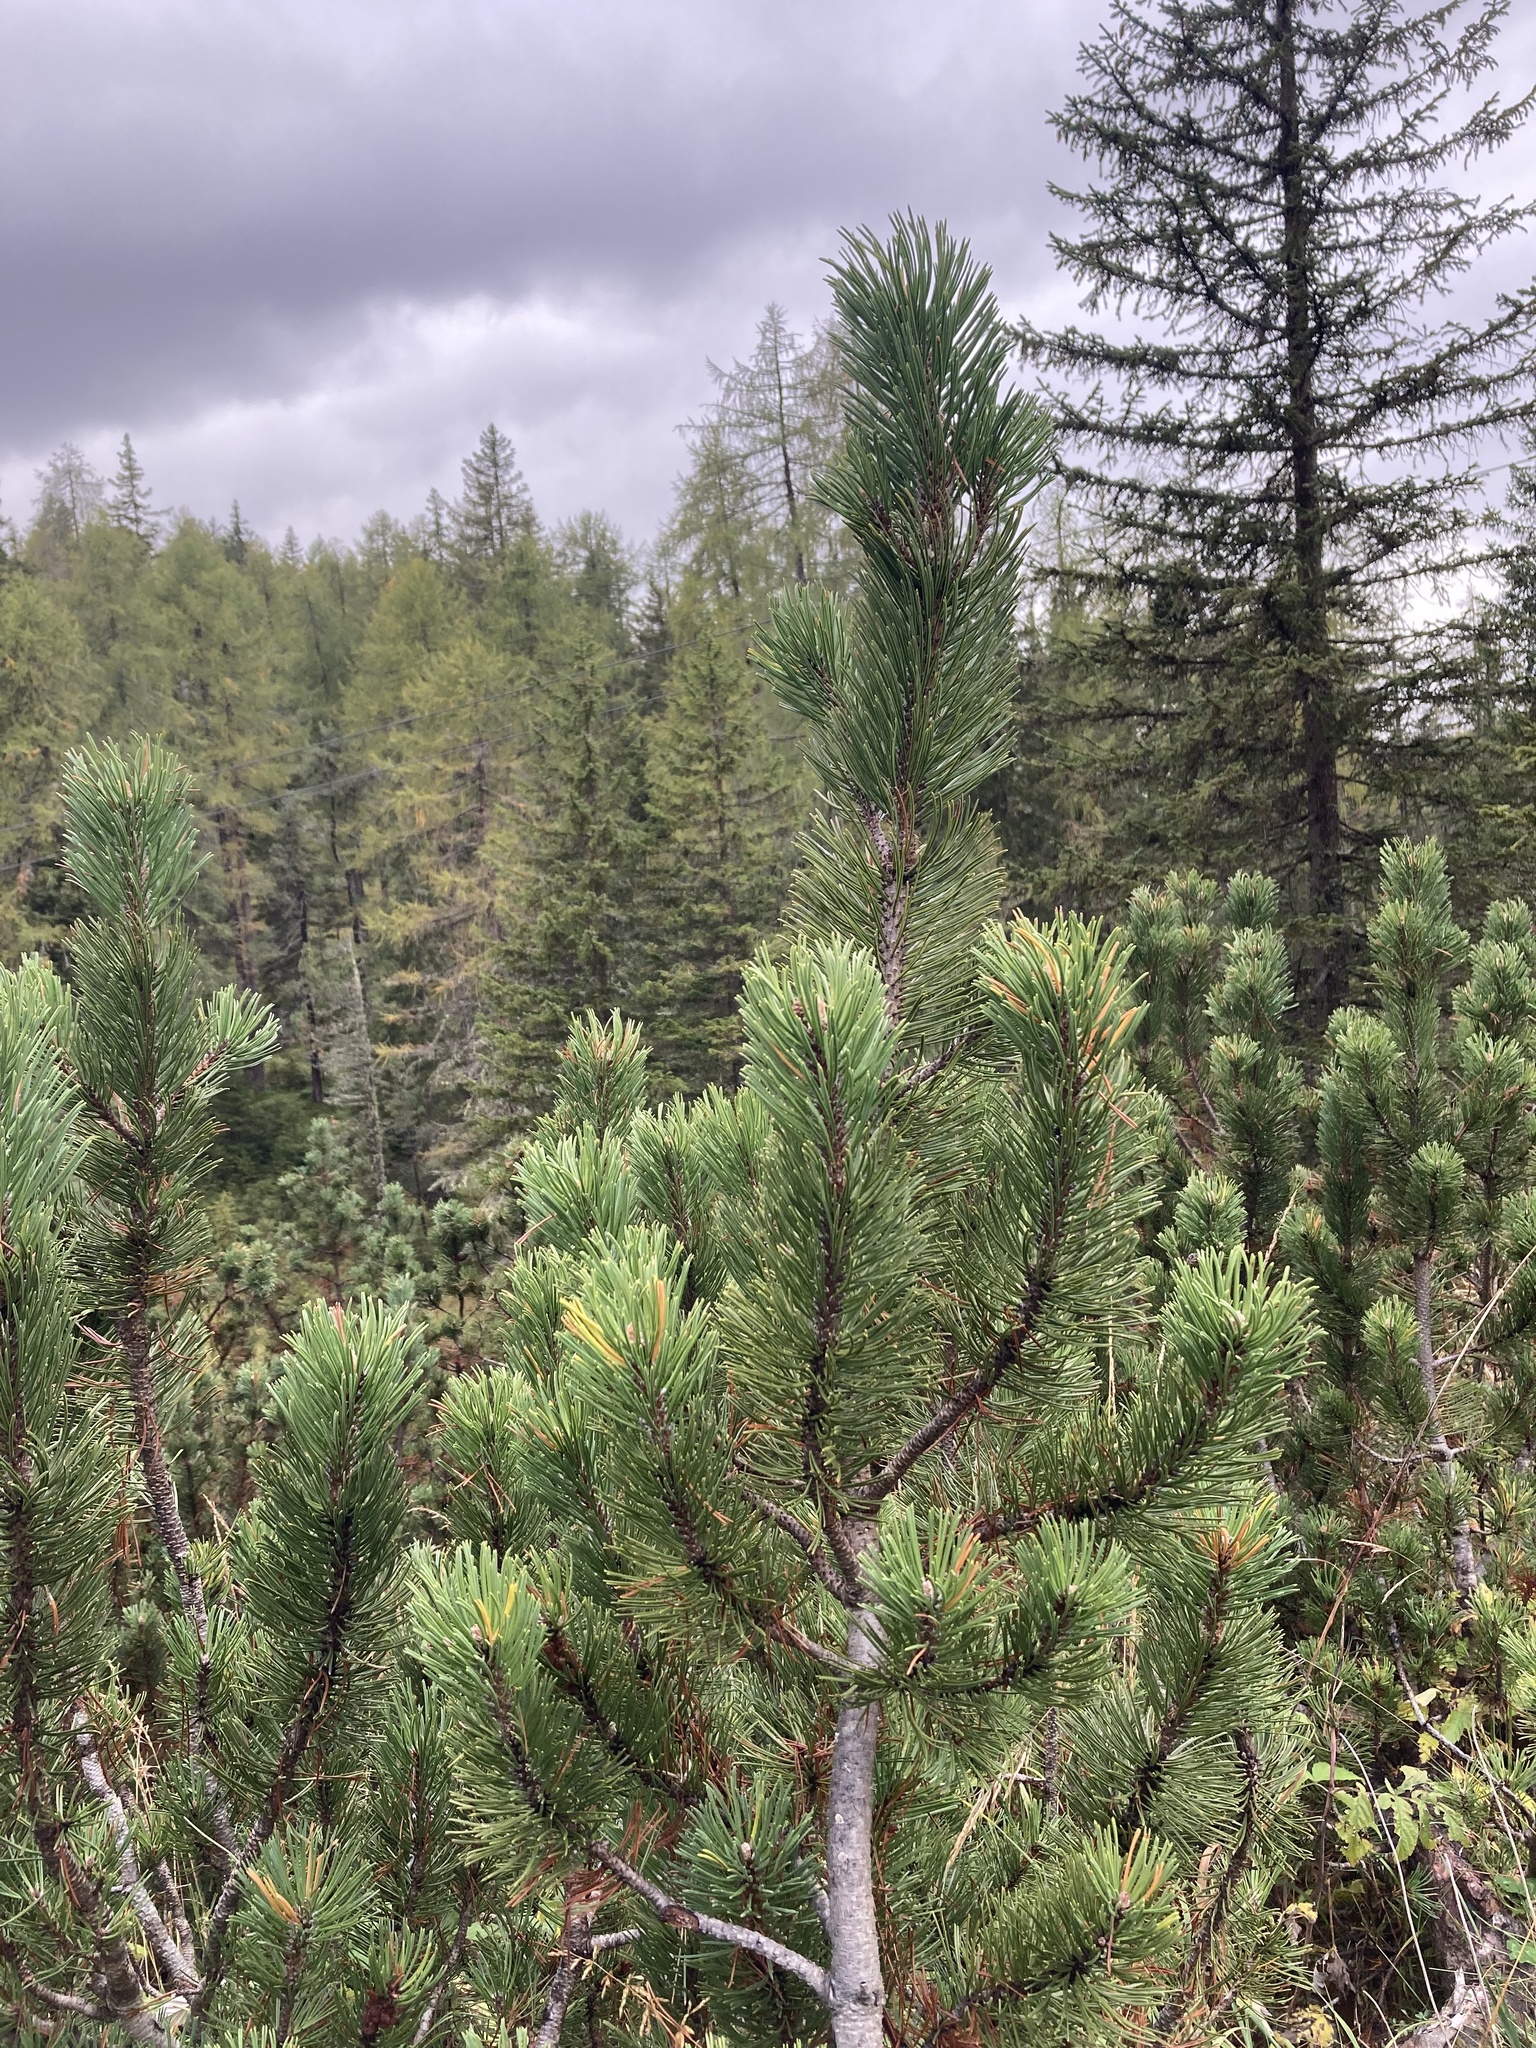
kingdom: Plantae
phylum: Tracheophyta
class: Pinopsida
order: Pinales
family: Pinaceae
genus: Pinus
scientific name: Pinus mugo
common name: Mugo pine
